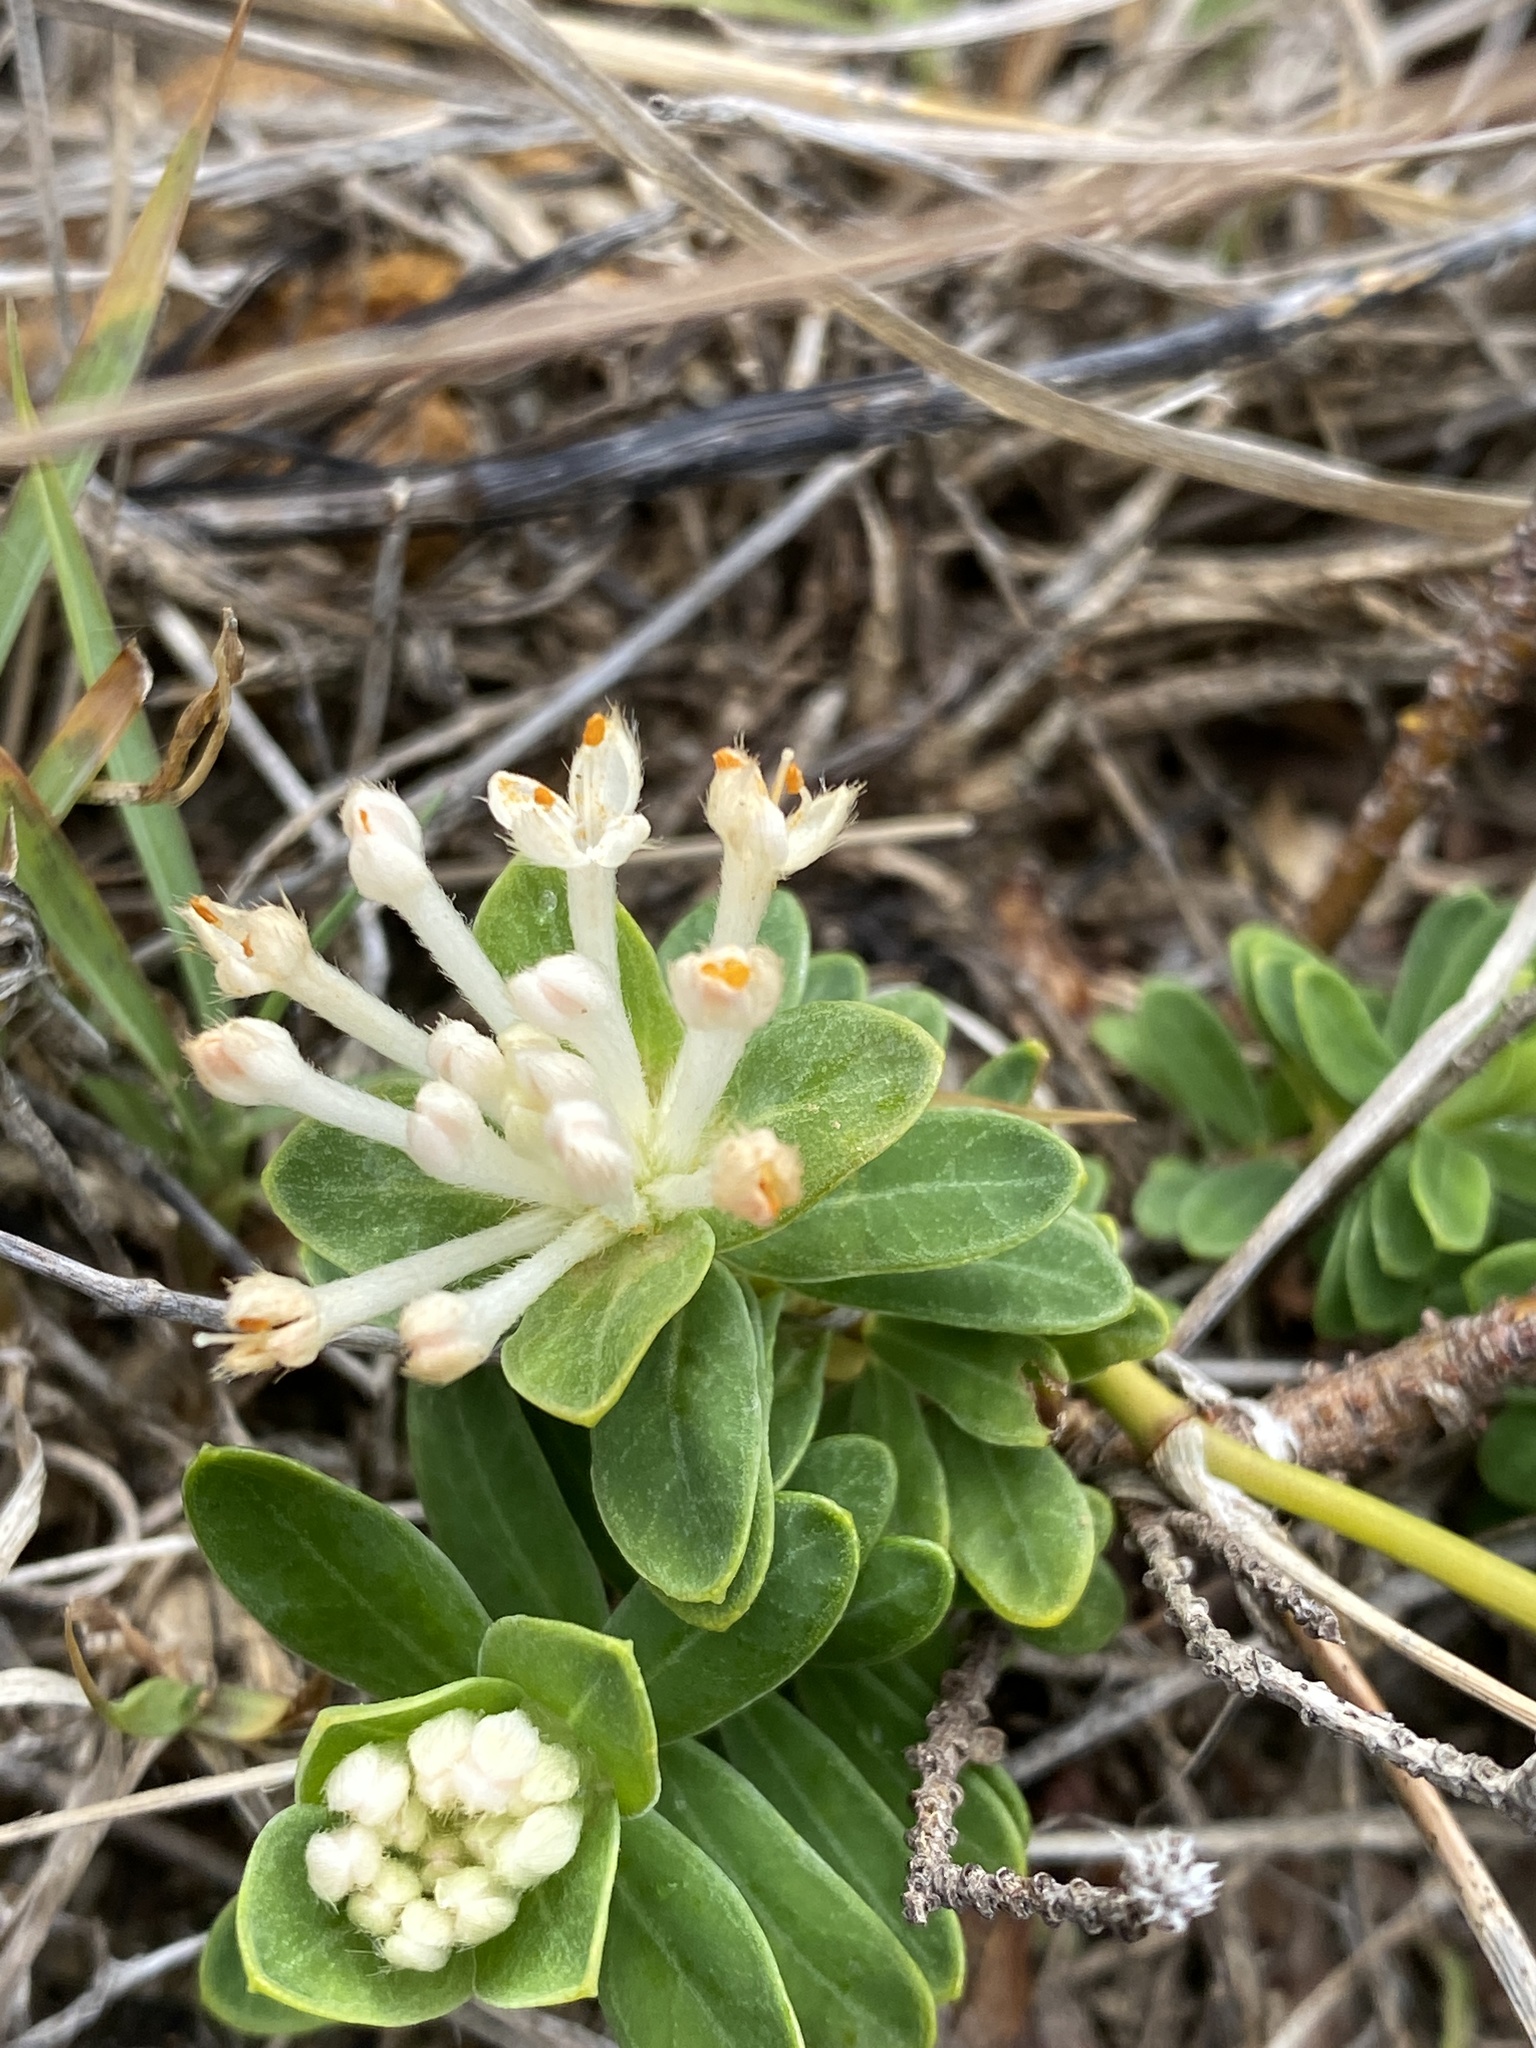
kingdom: Plantae
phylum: Tracheophyta
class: Magnoliopsida
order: Malvales
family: Thymelaeaceae
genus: Pimelea
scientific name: Pimelea linifolia
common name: Queen-of-the-bush
